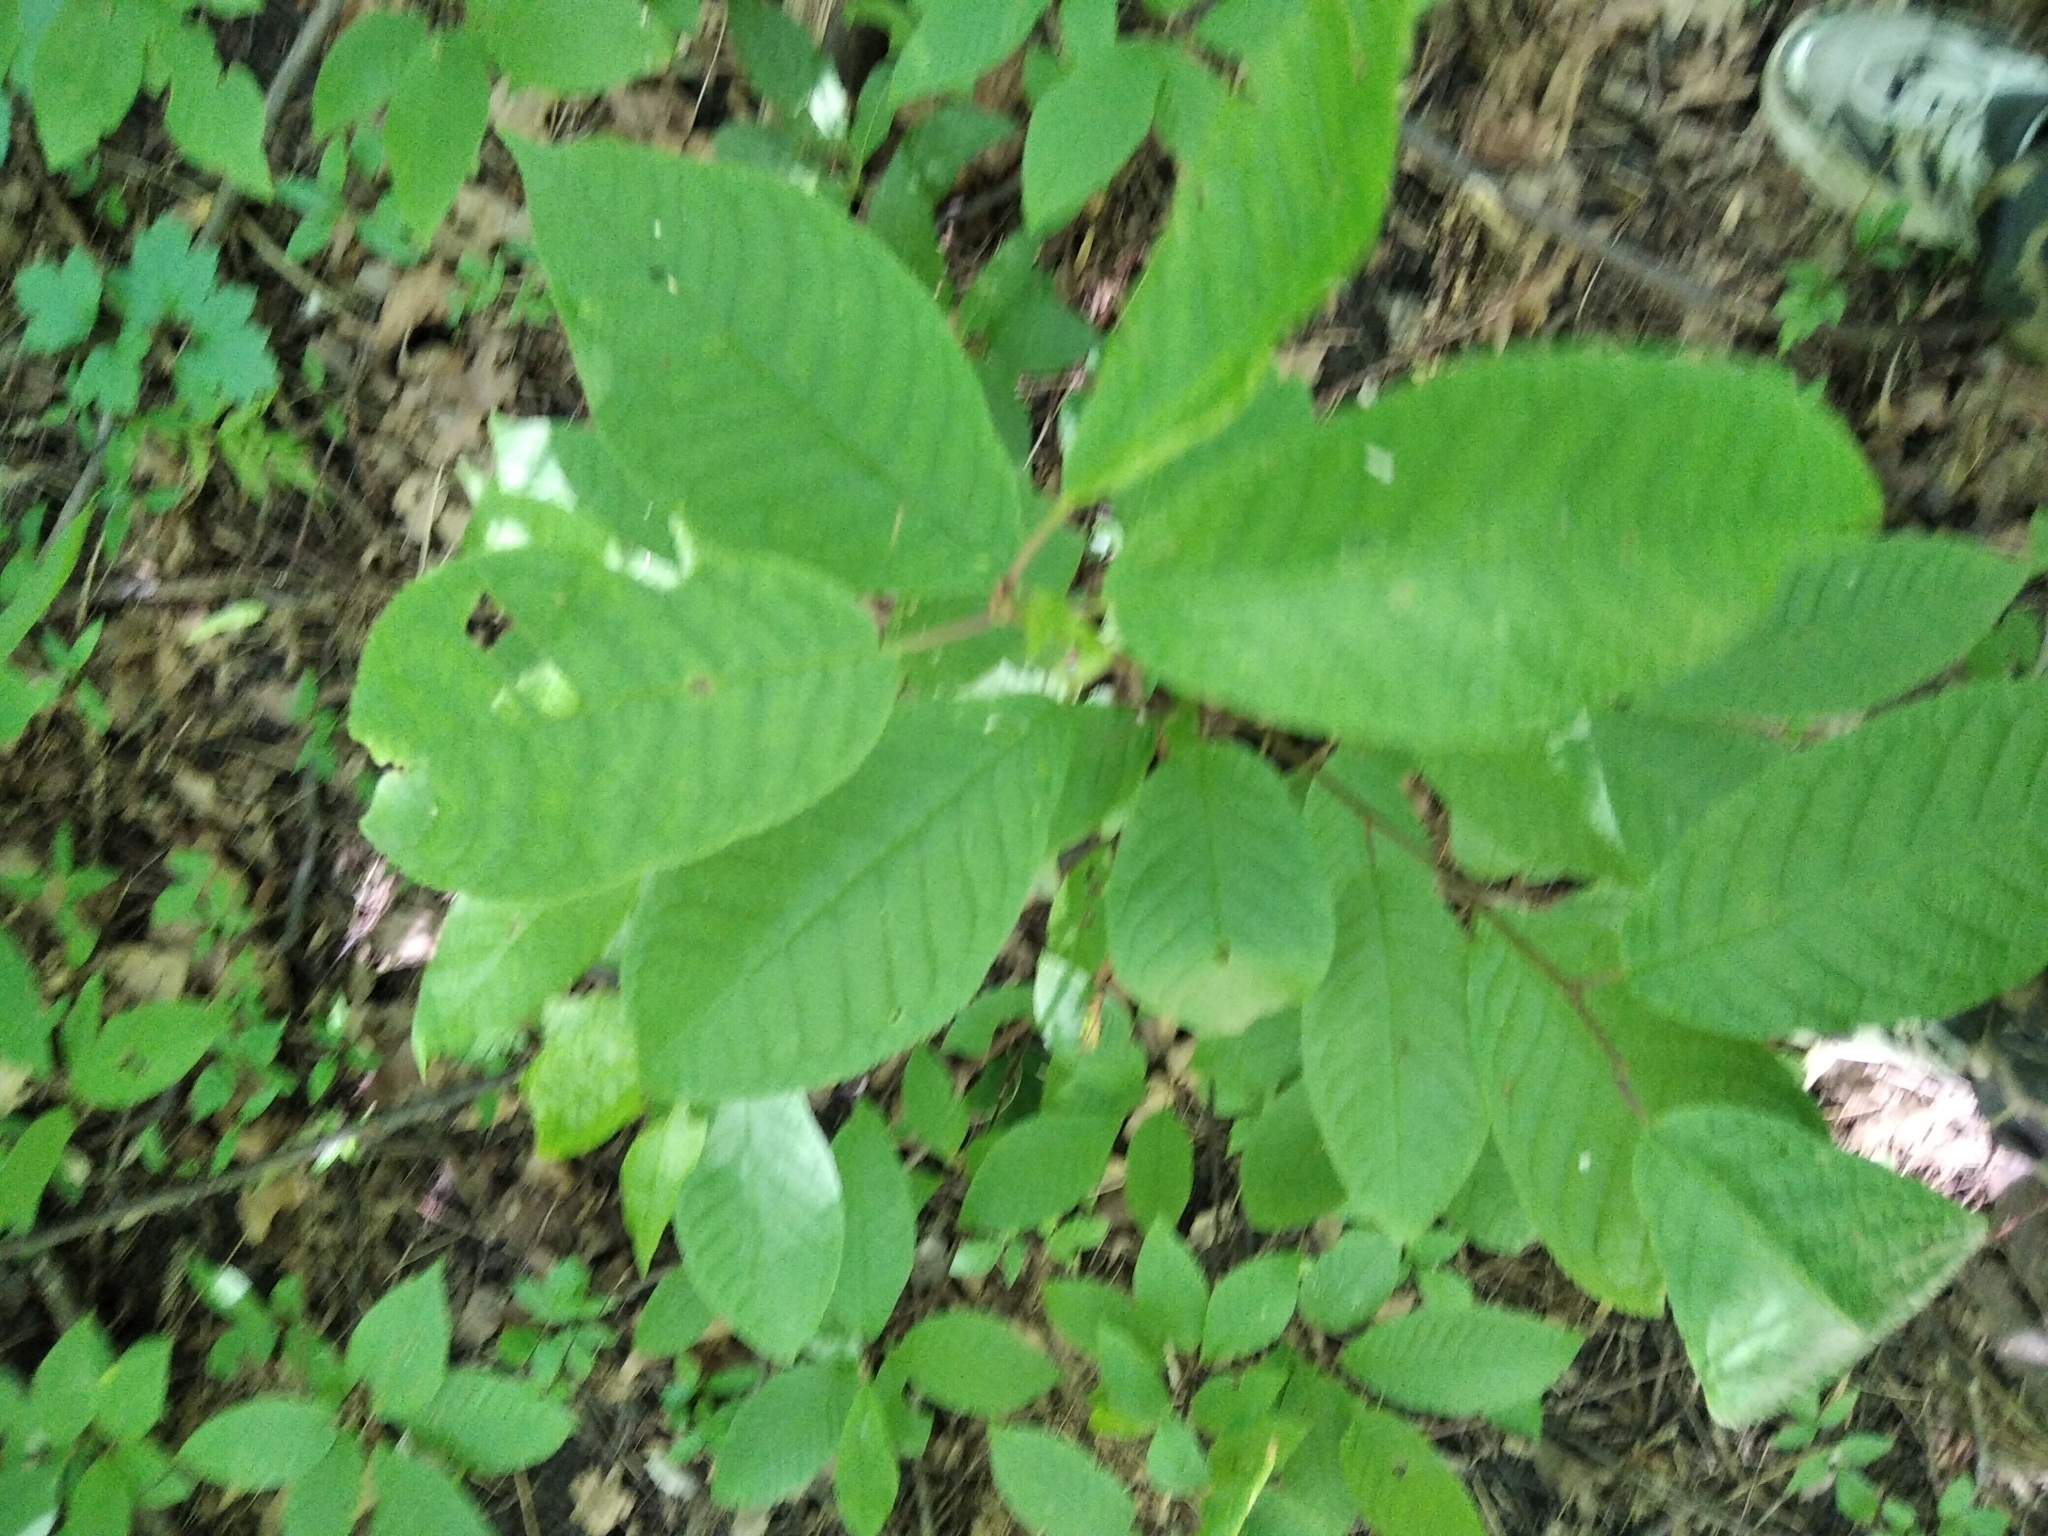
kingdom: Plantae
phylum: Tracheophyta
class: Magnoliopsida
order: Rosales
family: Rosaceae
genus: Prunus
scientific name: Prunus padus
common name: Bird cherry
